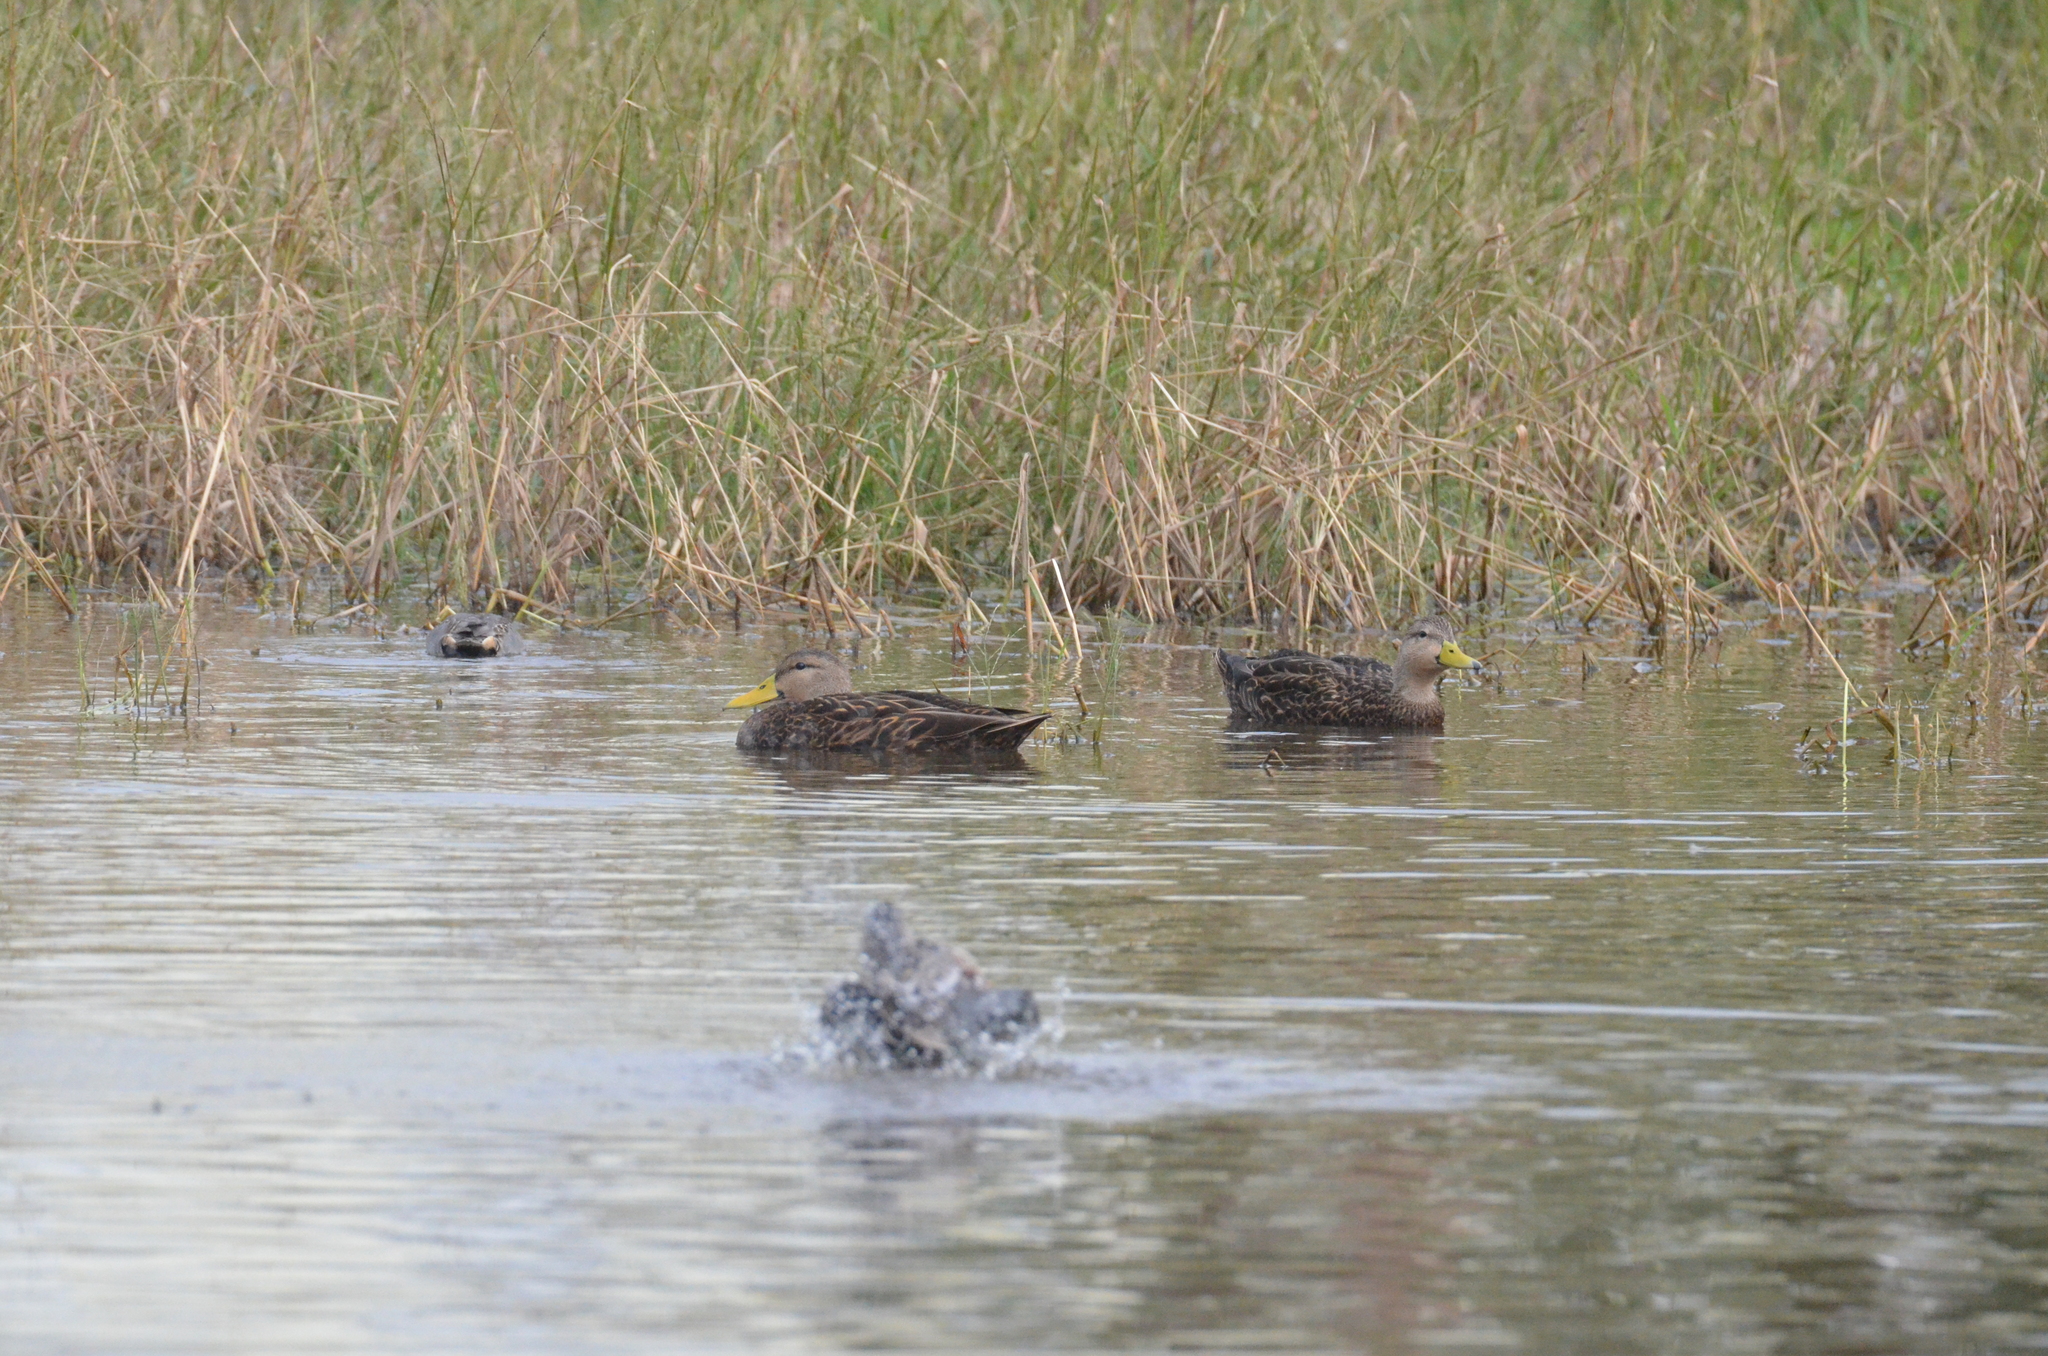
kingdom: Animalia
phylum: Chordata
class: Aves
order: Anseriformes
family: Anatidae
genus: Anas
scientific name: Anas fulvigula
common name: Mottled duck
